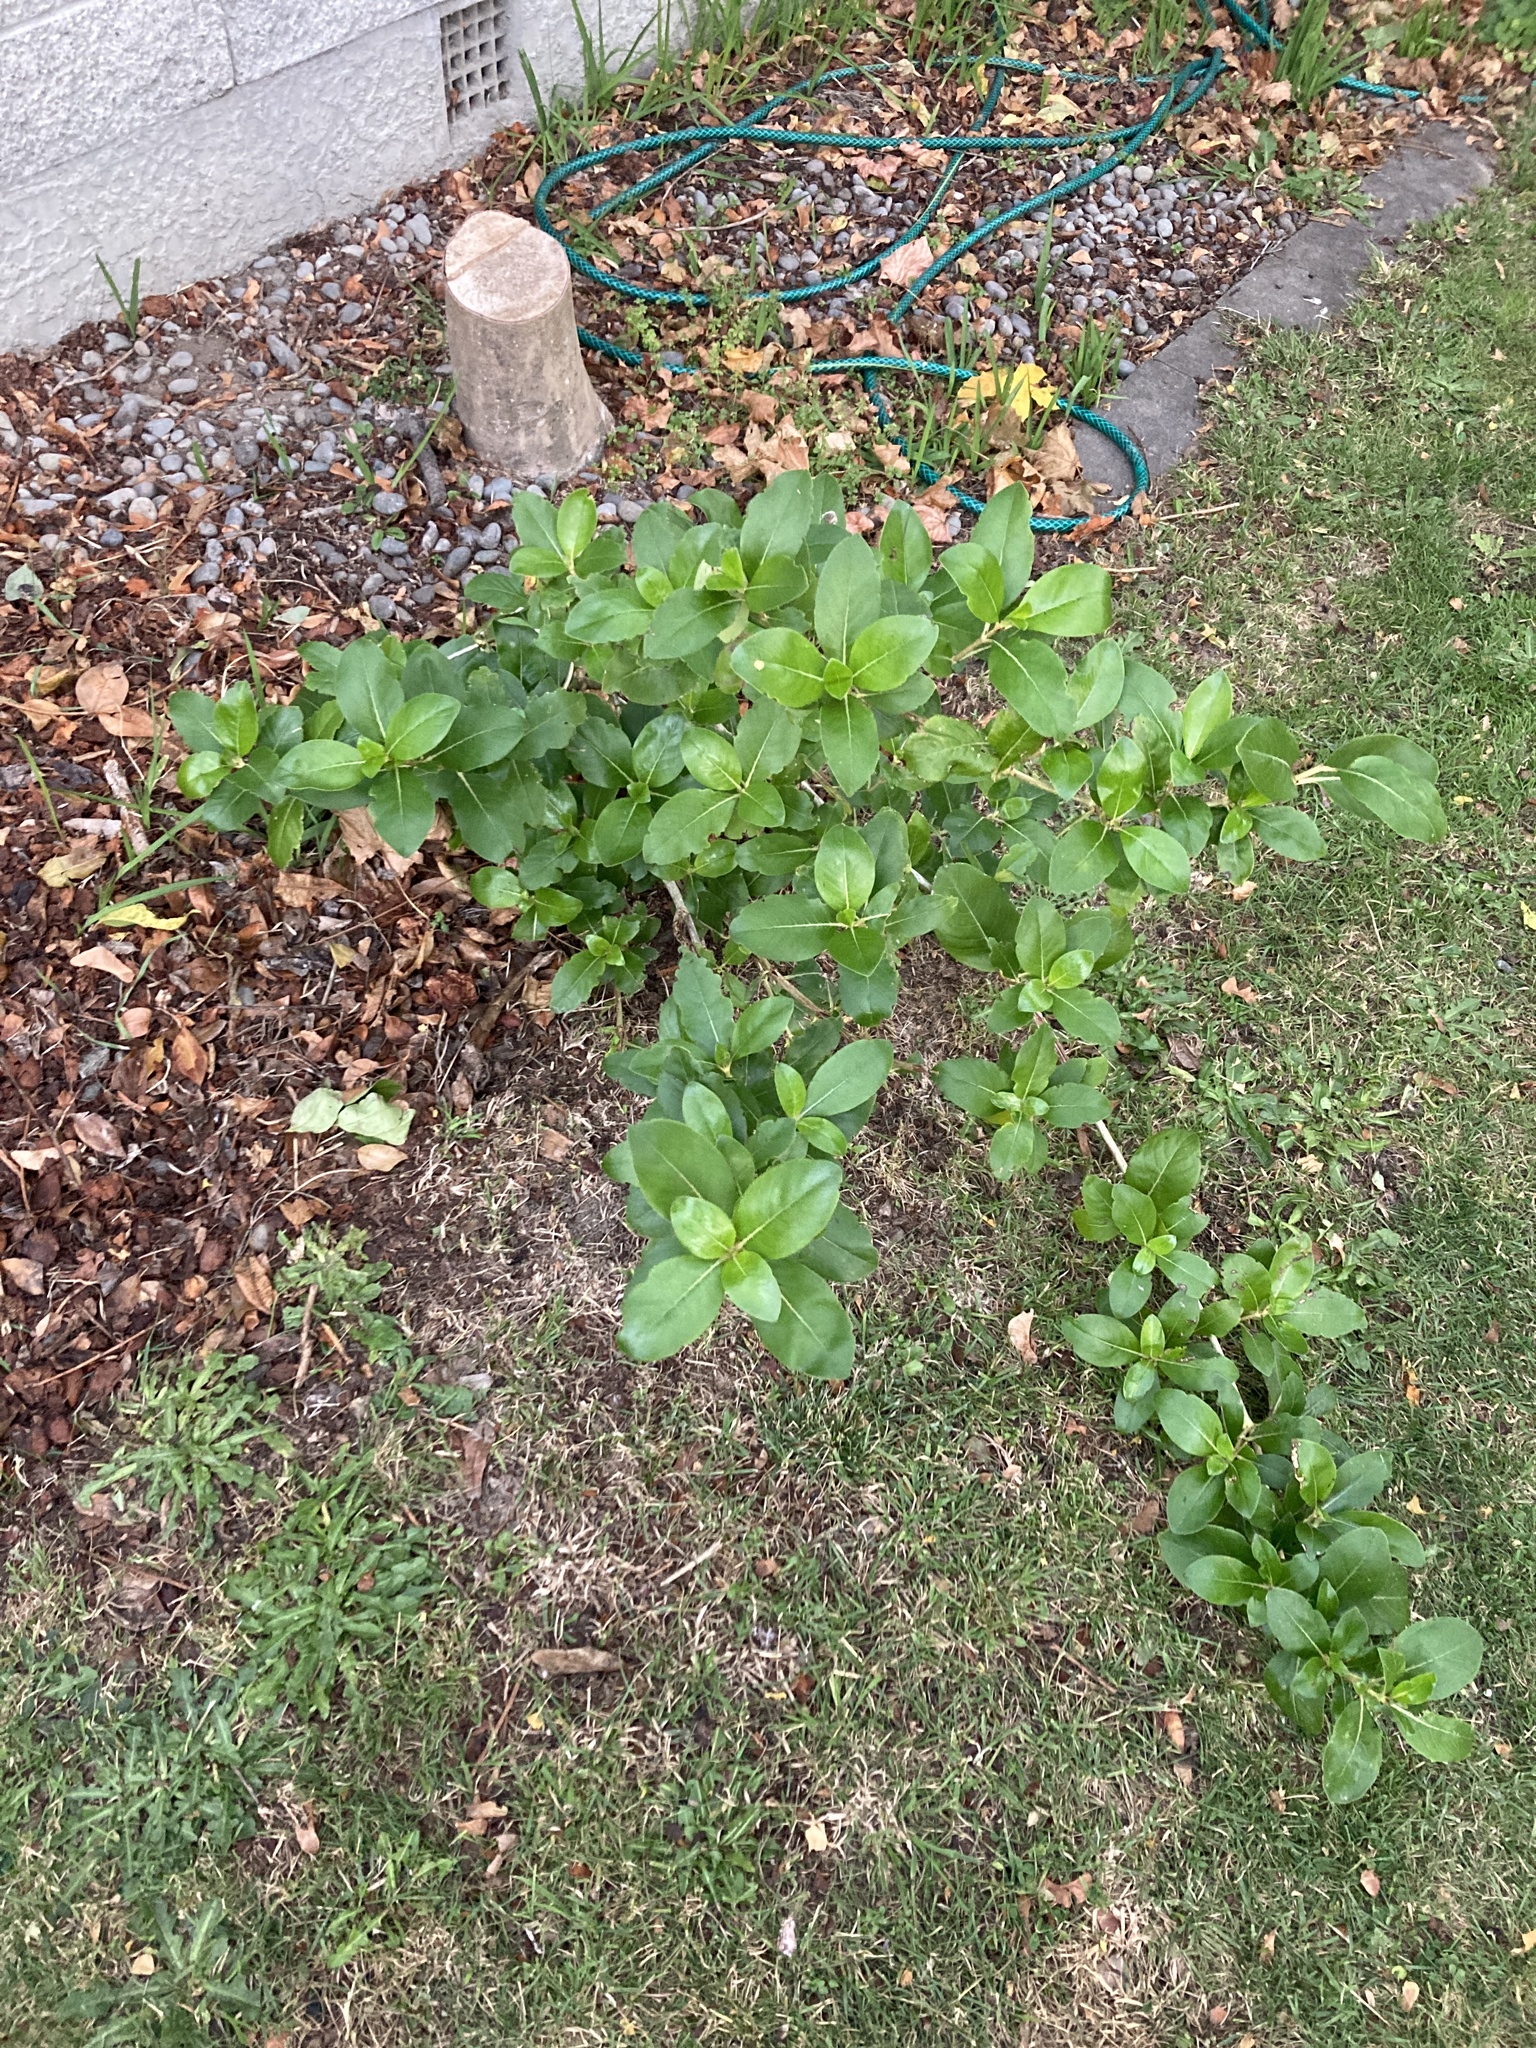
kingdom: Plantae
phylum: Tracheophyta
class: Magnoliopsida
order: Gentianales
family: Rubiaceae
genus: Coprosma
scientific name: Coprosma robusta
